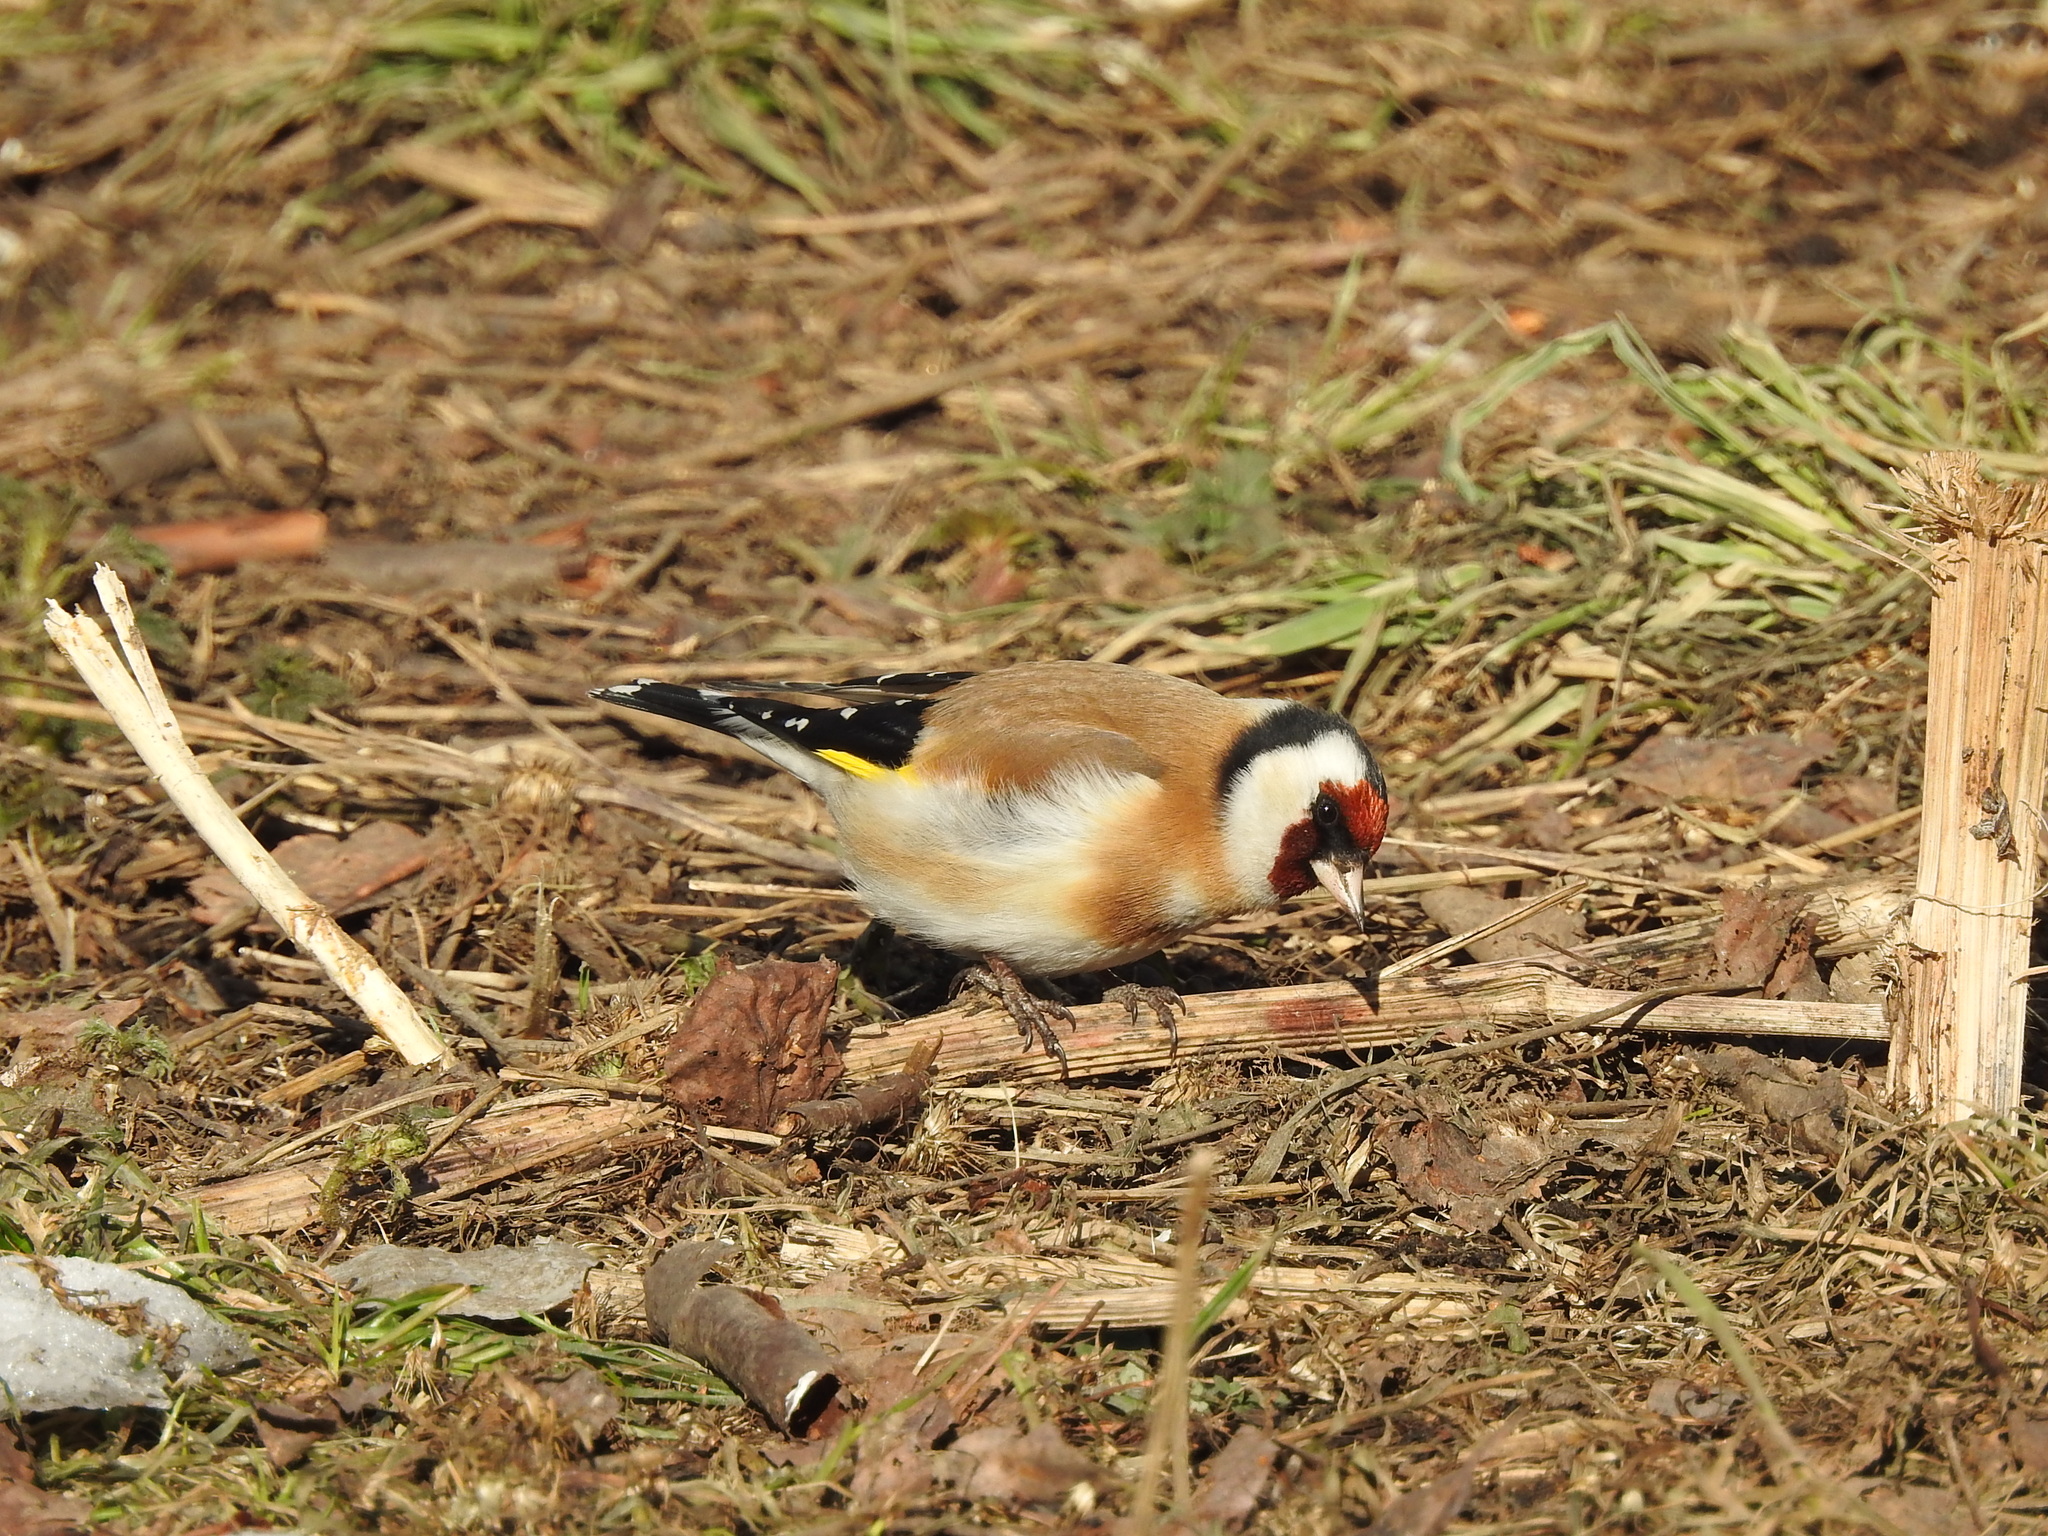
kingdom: Animalia
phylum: Chordata
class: Aves
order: Passeriformes
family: Fringillidae
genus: Carduelis
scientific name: Carduelis carduelis
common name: European goldfinch
